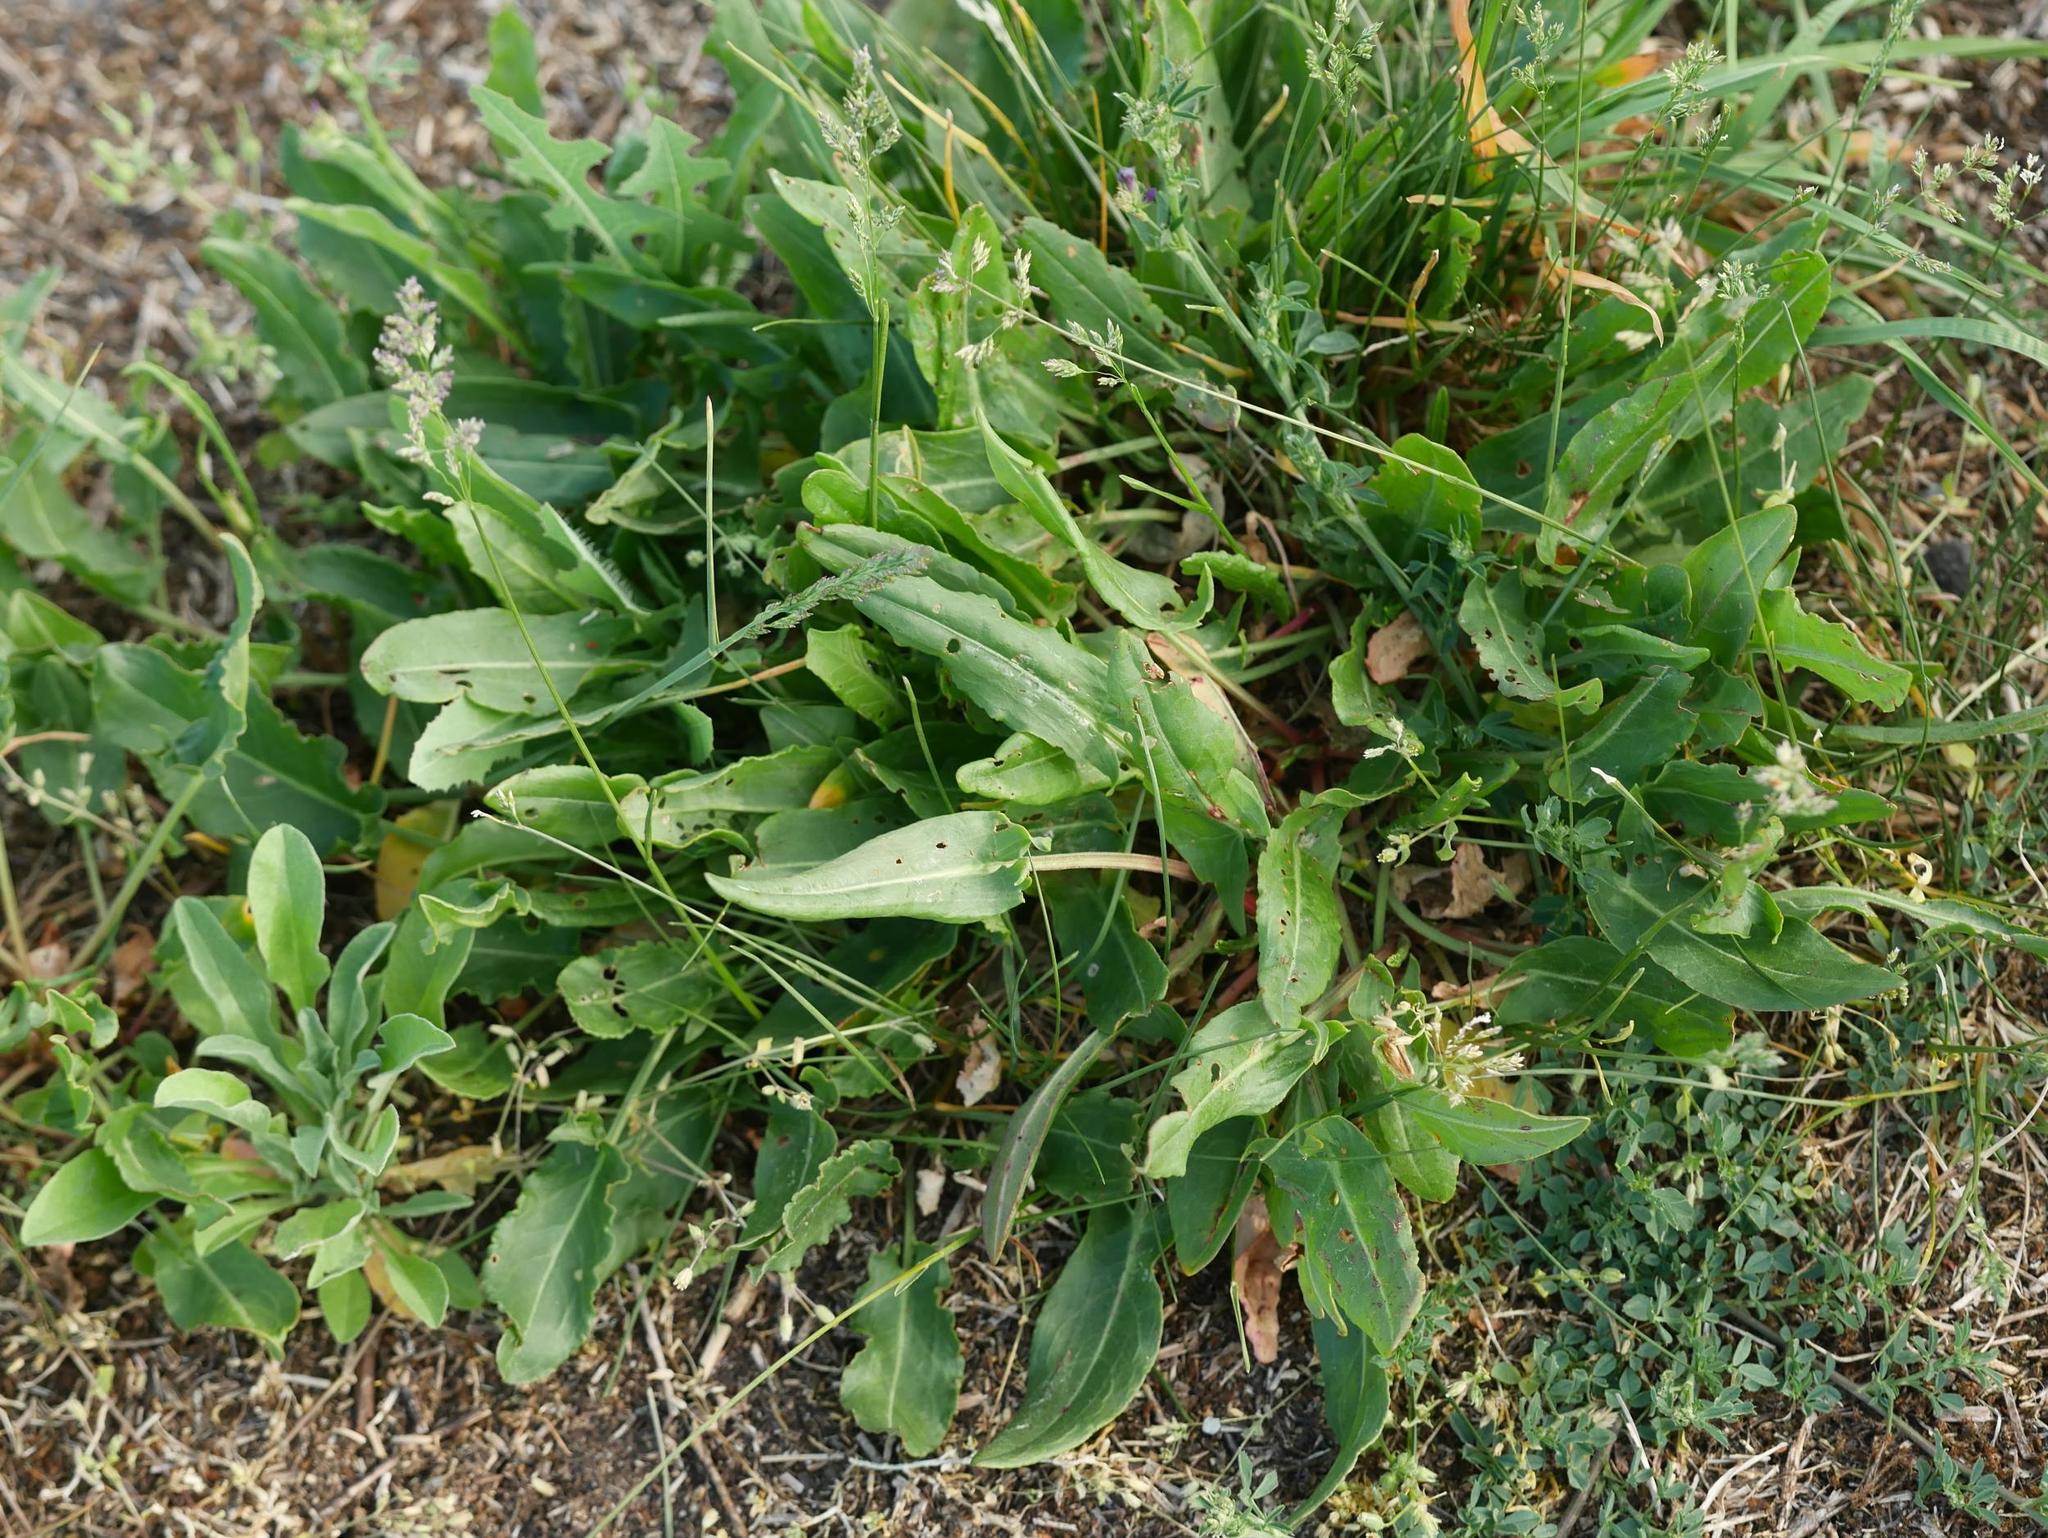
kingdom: Plantae
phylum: Tracheophyta
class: Magnoliopsida
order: Caryophyllales
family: Polygonaceae
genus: Rumex
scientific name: Rumex acetosa
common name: Garden sorrel
